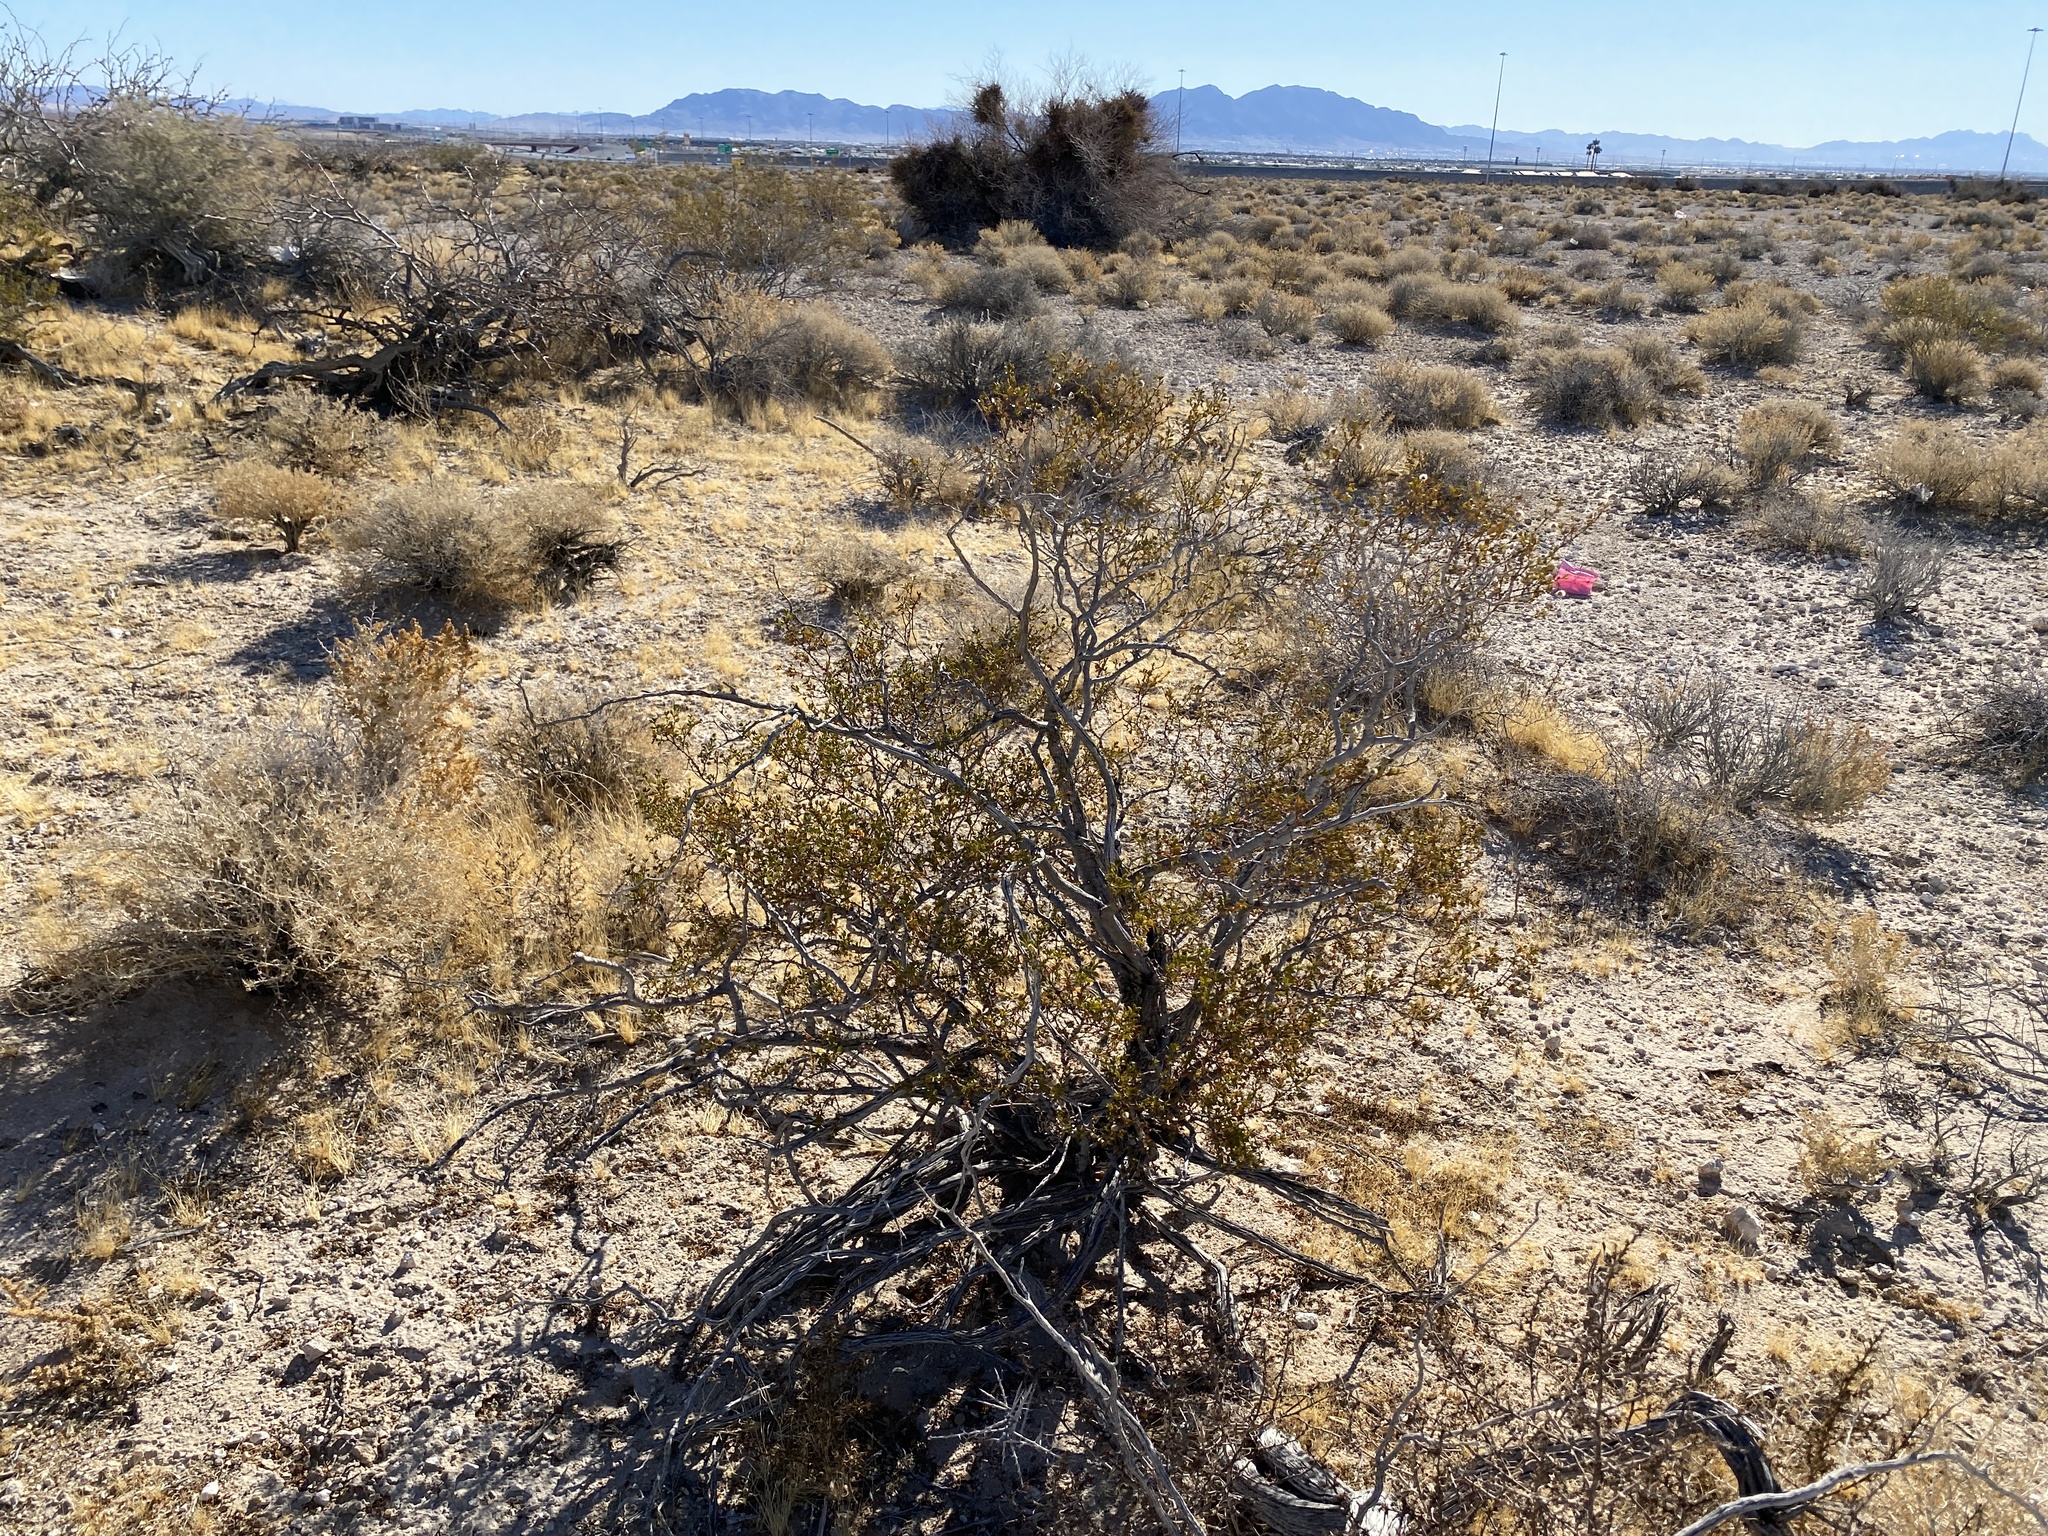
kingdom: Plantae
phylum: Tracheophyta
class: Magnoliopsida
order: Zygophyllales
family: Zygophyllaceae
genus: Larrea
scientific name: Larrea tridentata
